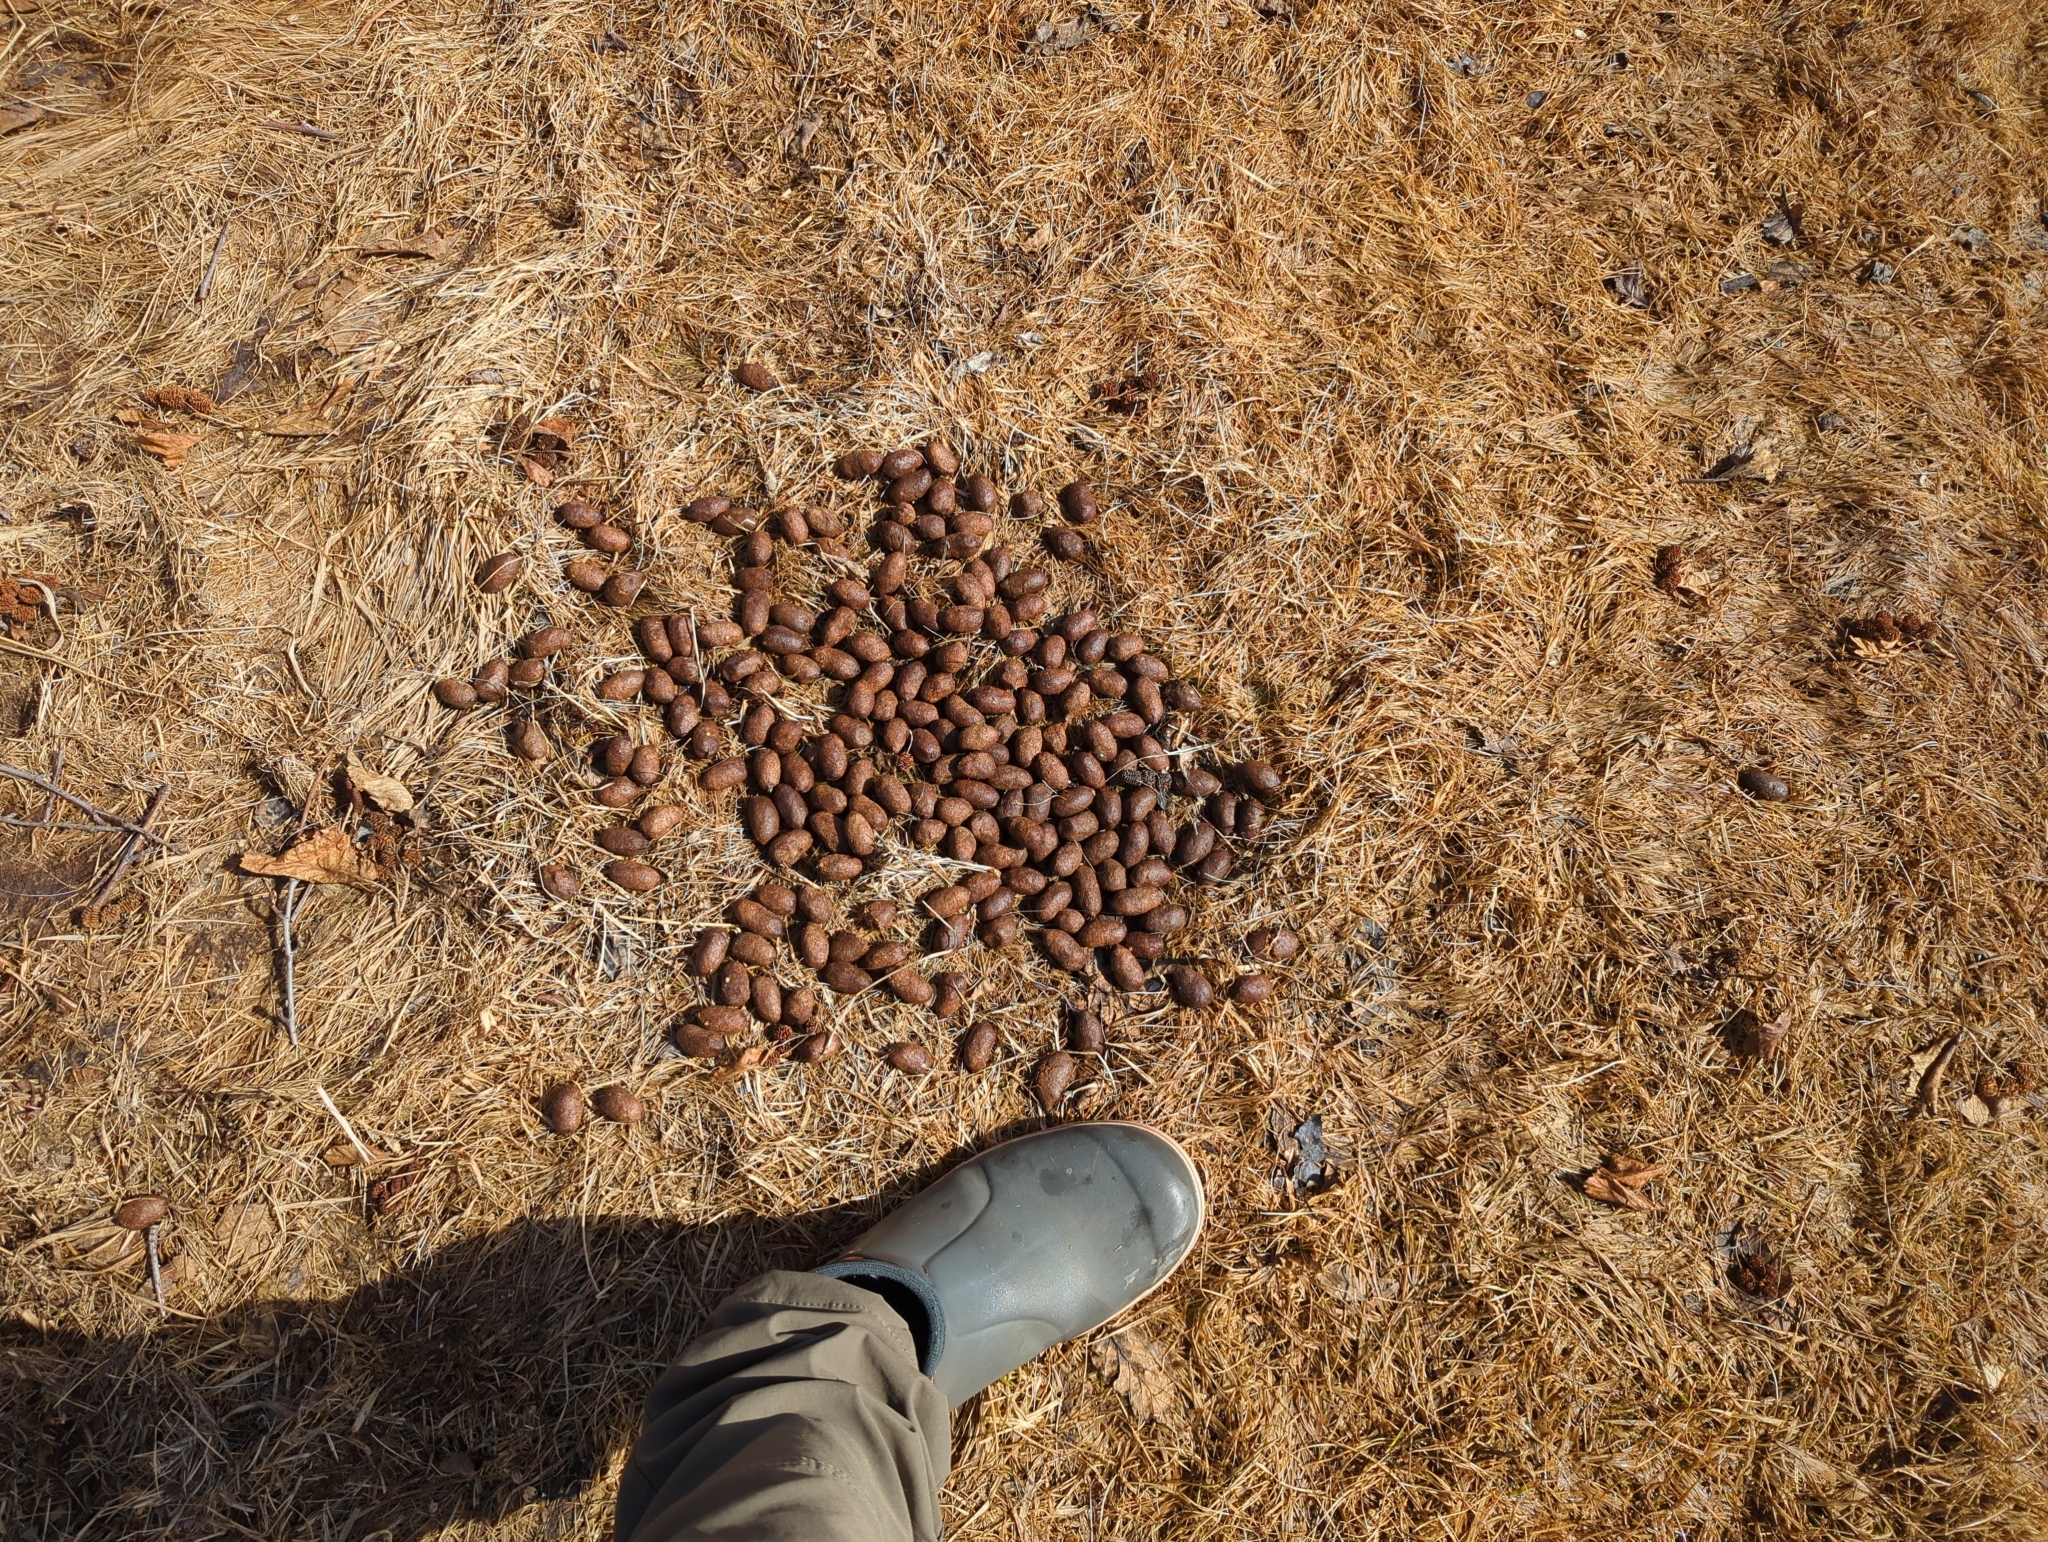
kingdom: Animalia
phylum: Chordata
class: Mammalia
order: Artiodactyla
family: Cervidae
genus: Alces
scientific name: Alces alces
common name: Moose
